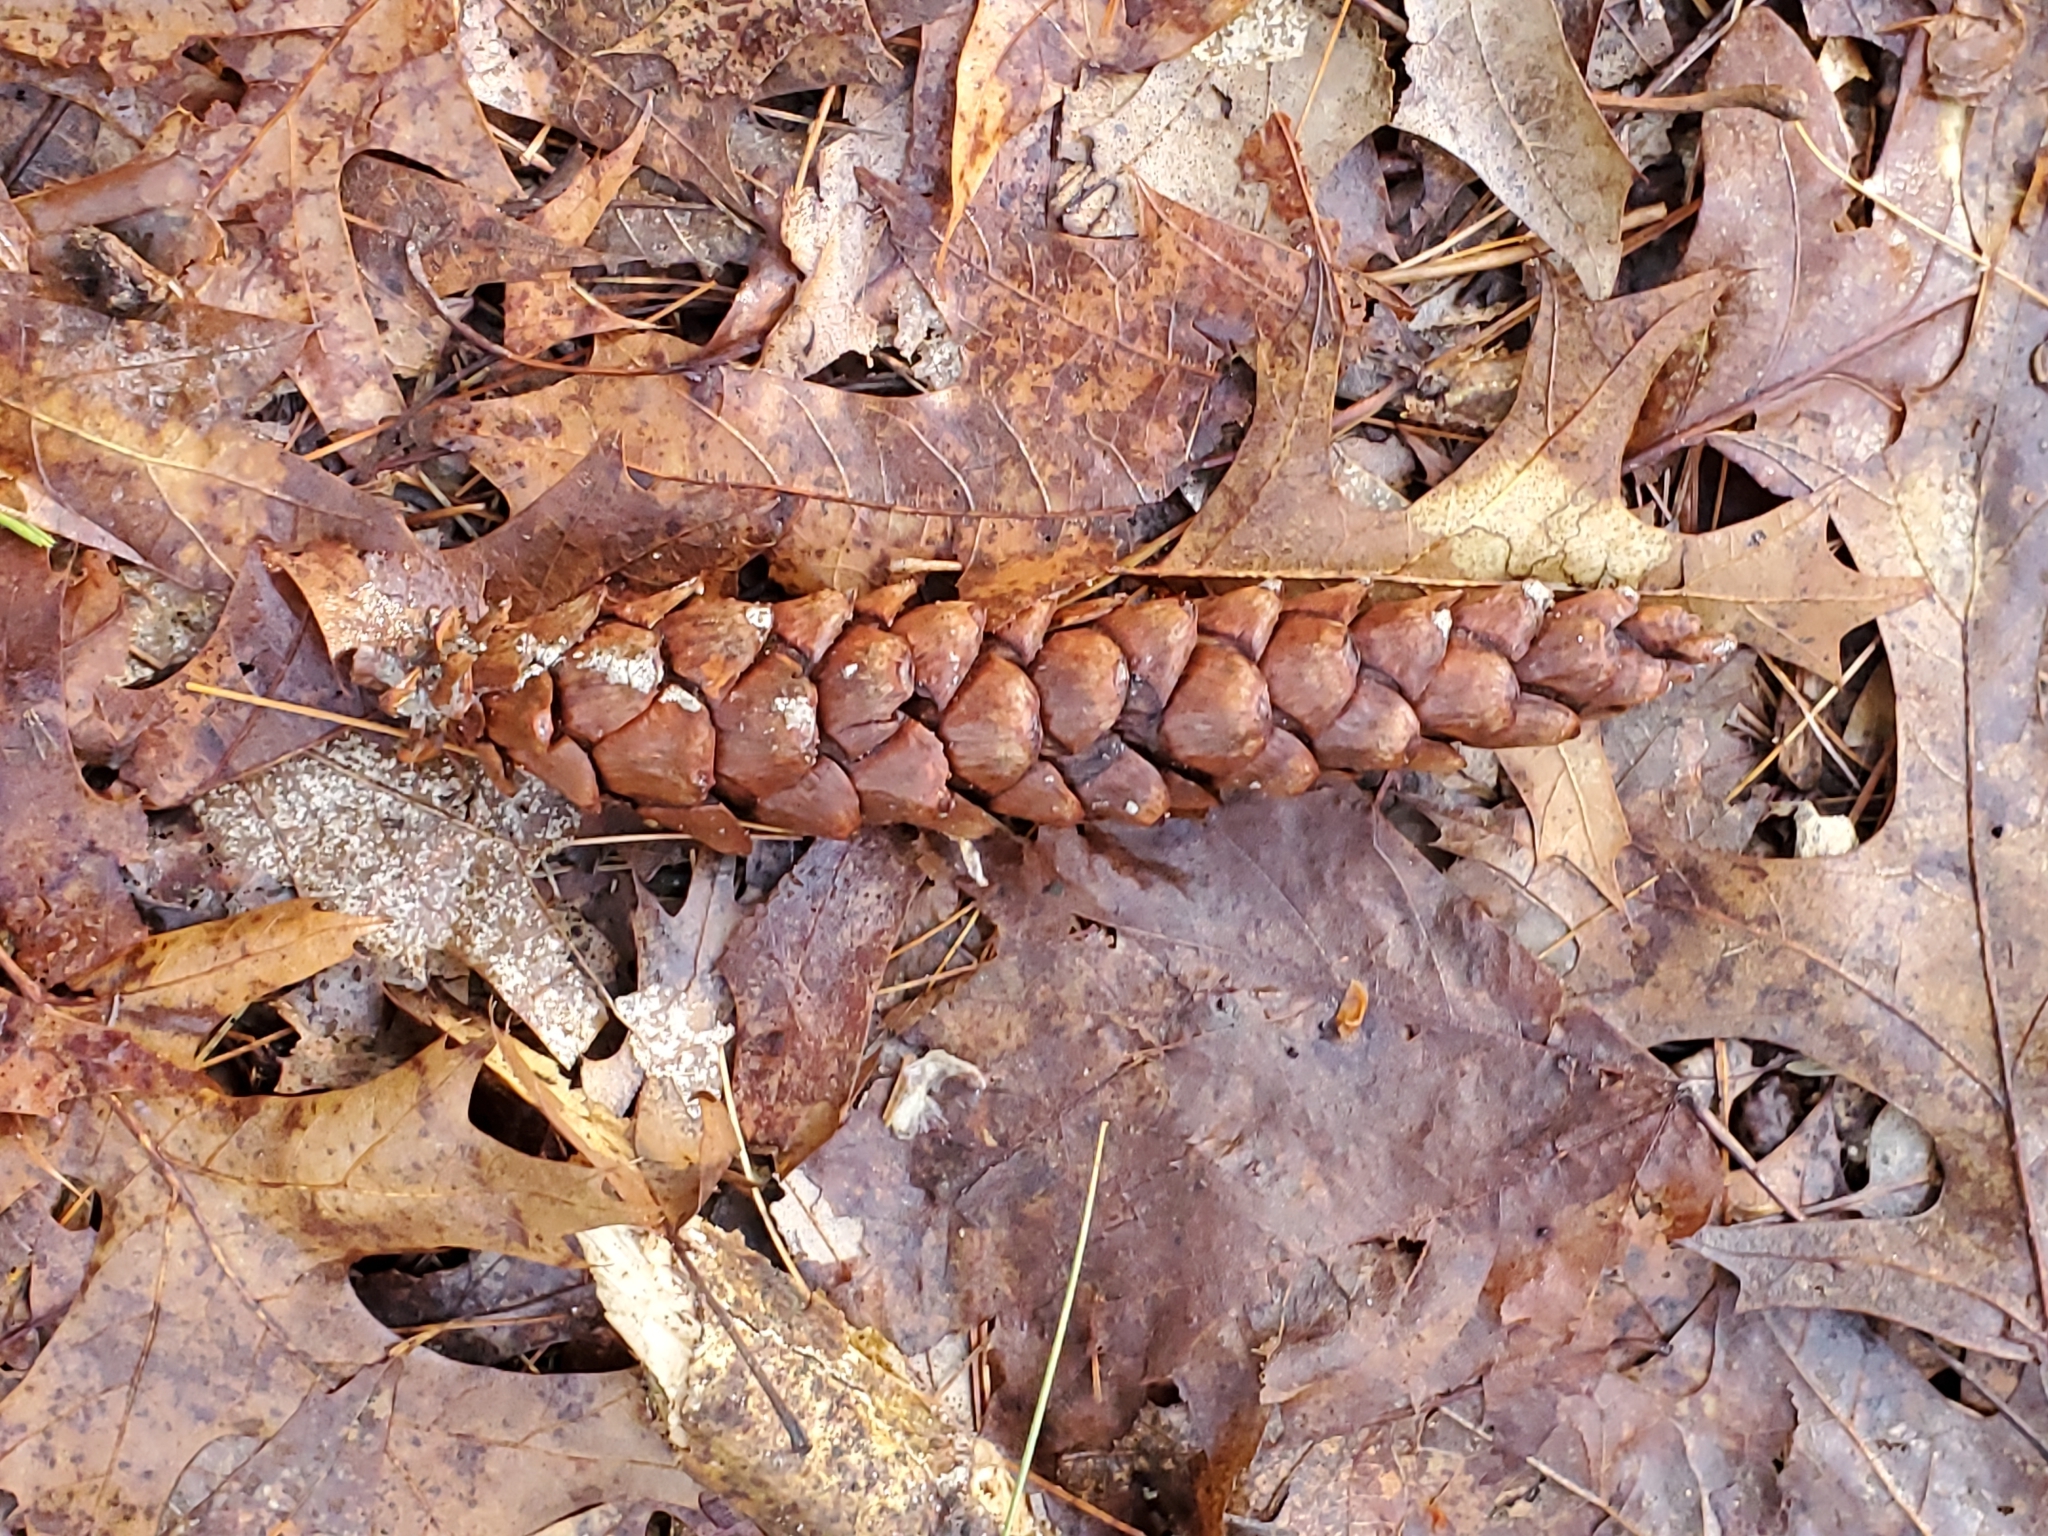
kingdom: Plantae
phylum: Tracheophyta
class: Pinopsida
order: Pinales
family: Pinaceae
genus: Pinus
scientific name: Pinus strobus
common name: Weymouth pine
